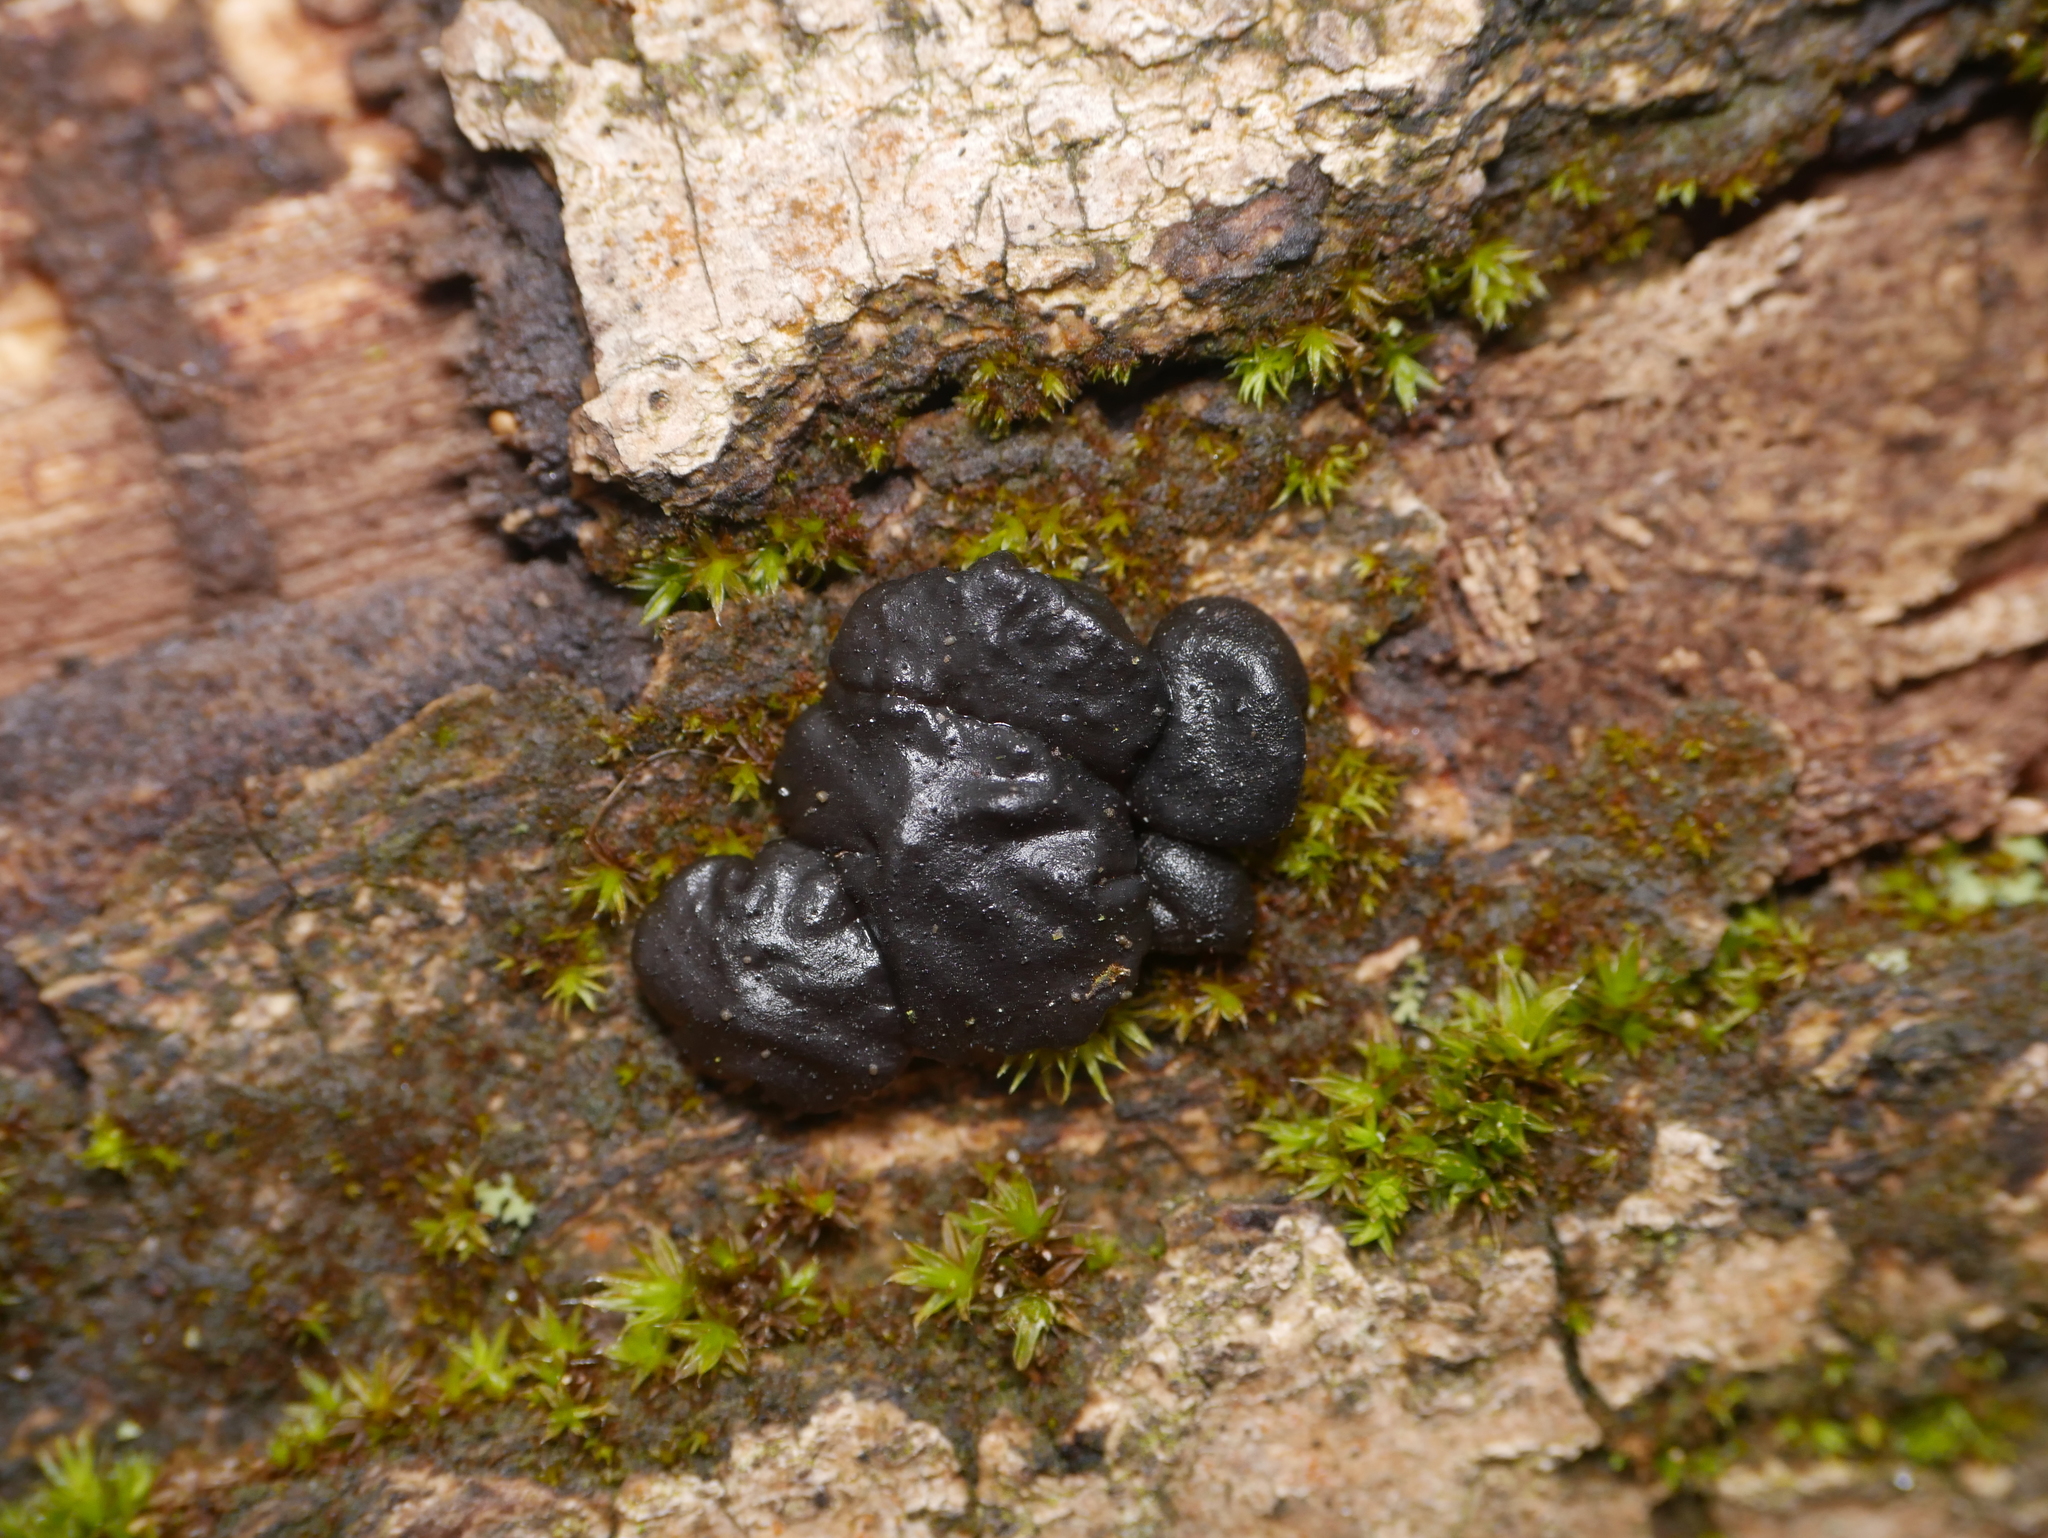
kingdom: Fungi
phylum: Basidiomycota
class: Agaricomycetes
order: Auriculariales
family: Auriculariaceae
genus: Exidia
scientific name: Exidia glandulosa
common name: Witches' butter
